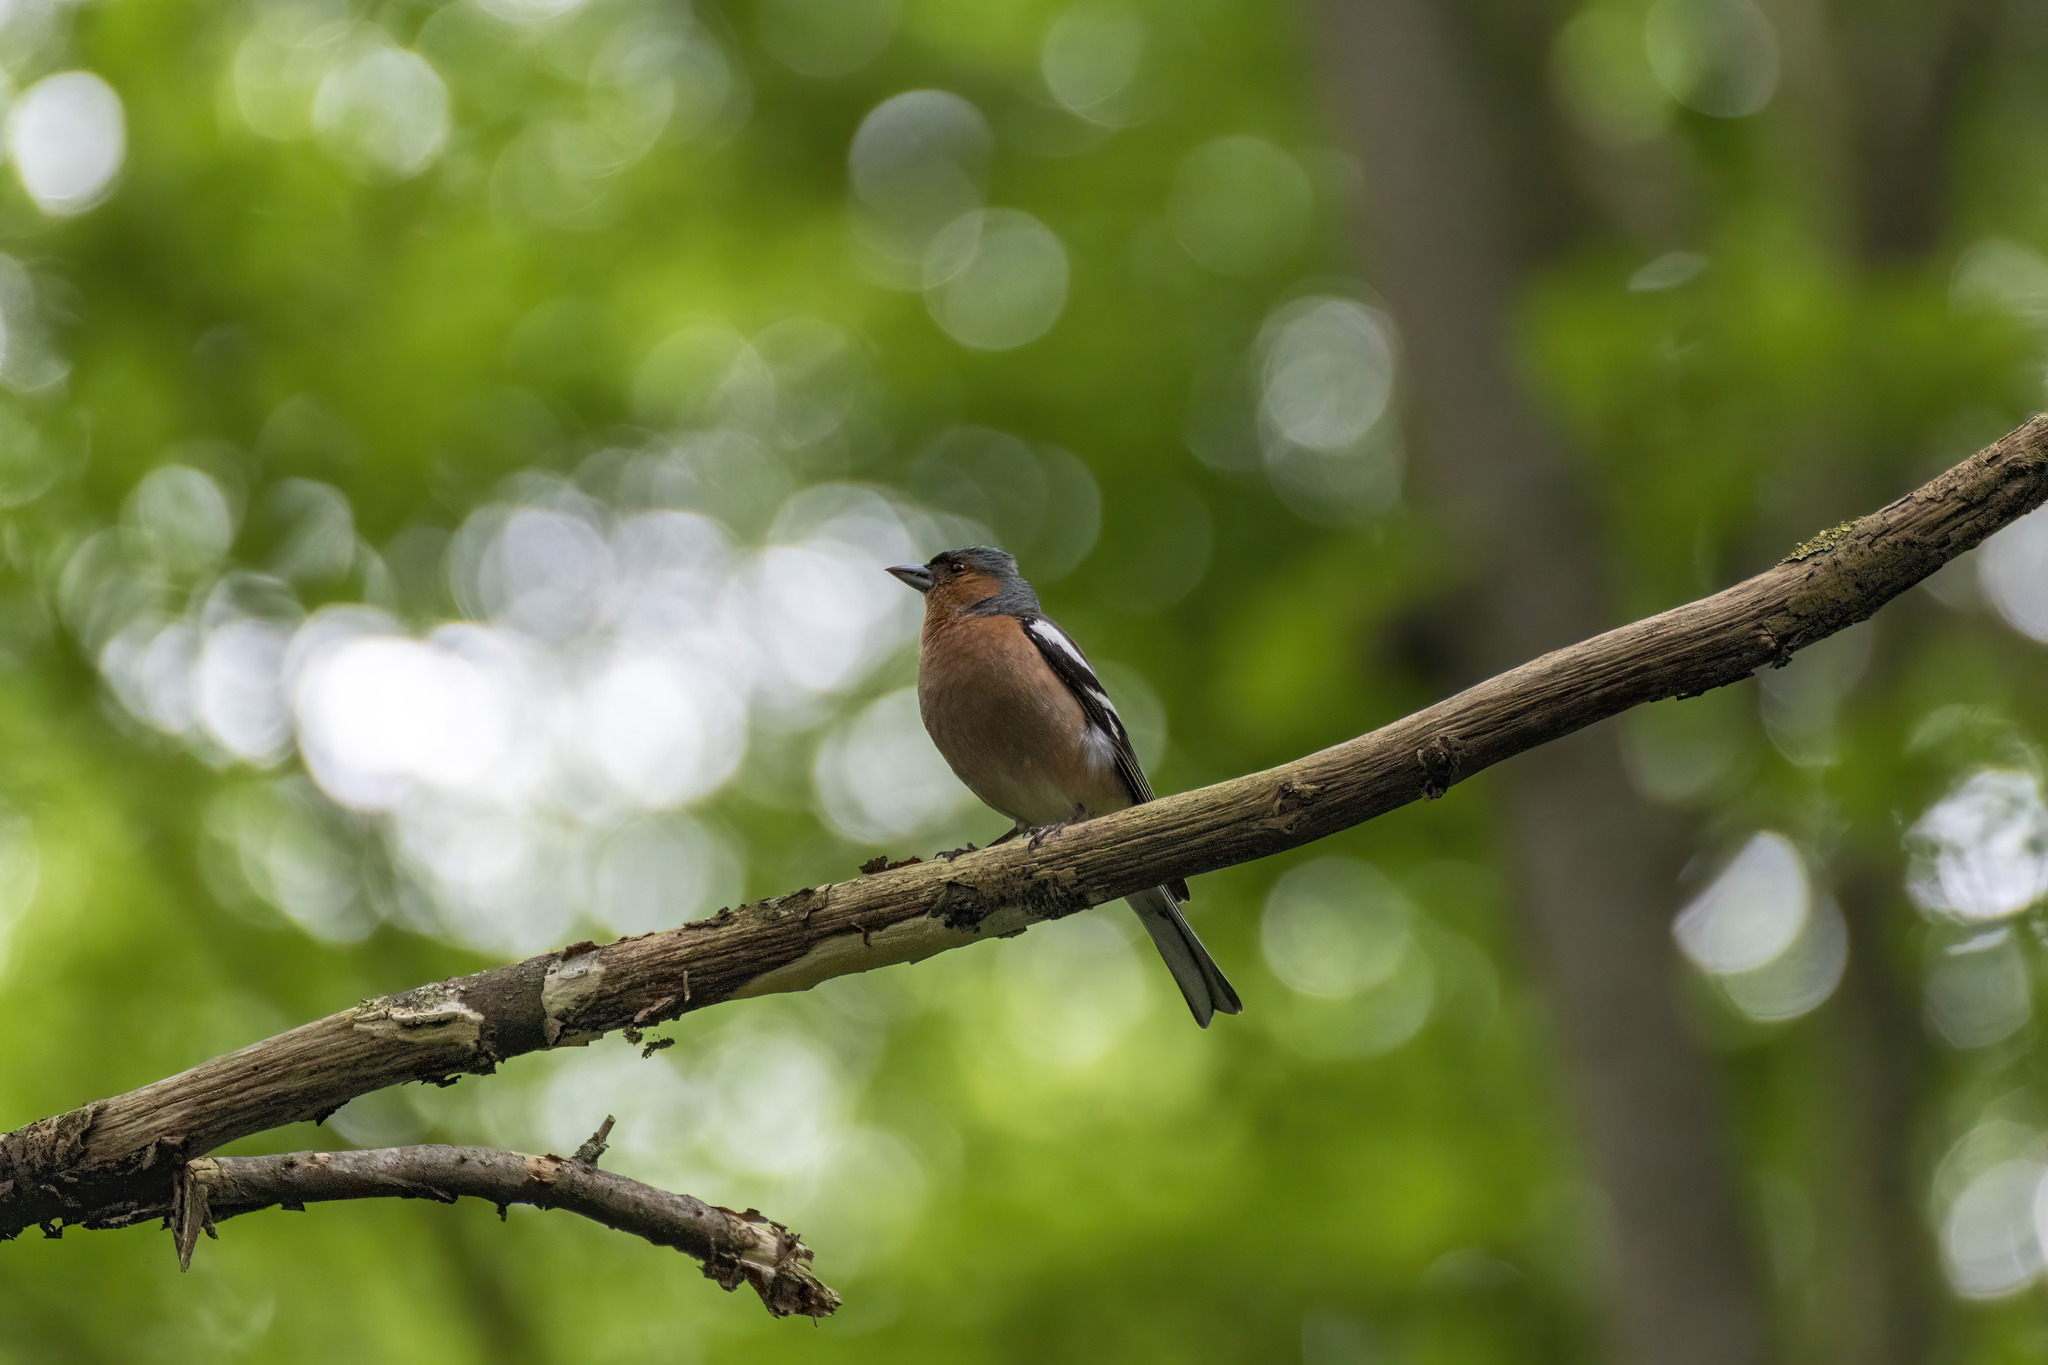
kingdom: Animalia
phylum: Chordata
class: Aves
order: Passeriformes
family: Fringillidae
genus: Fringilla
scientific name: Fringilla coelebs
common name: Common chaffinch
